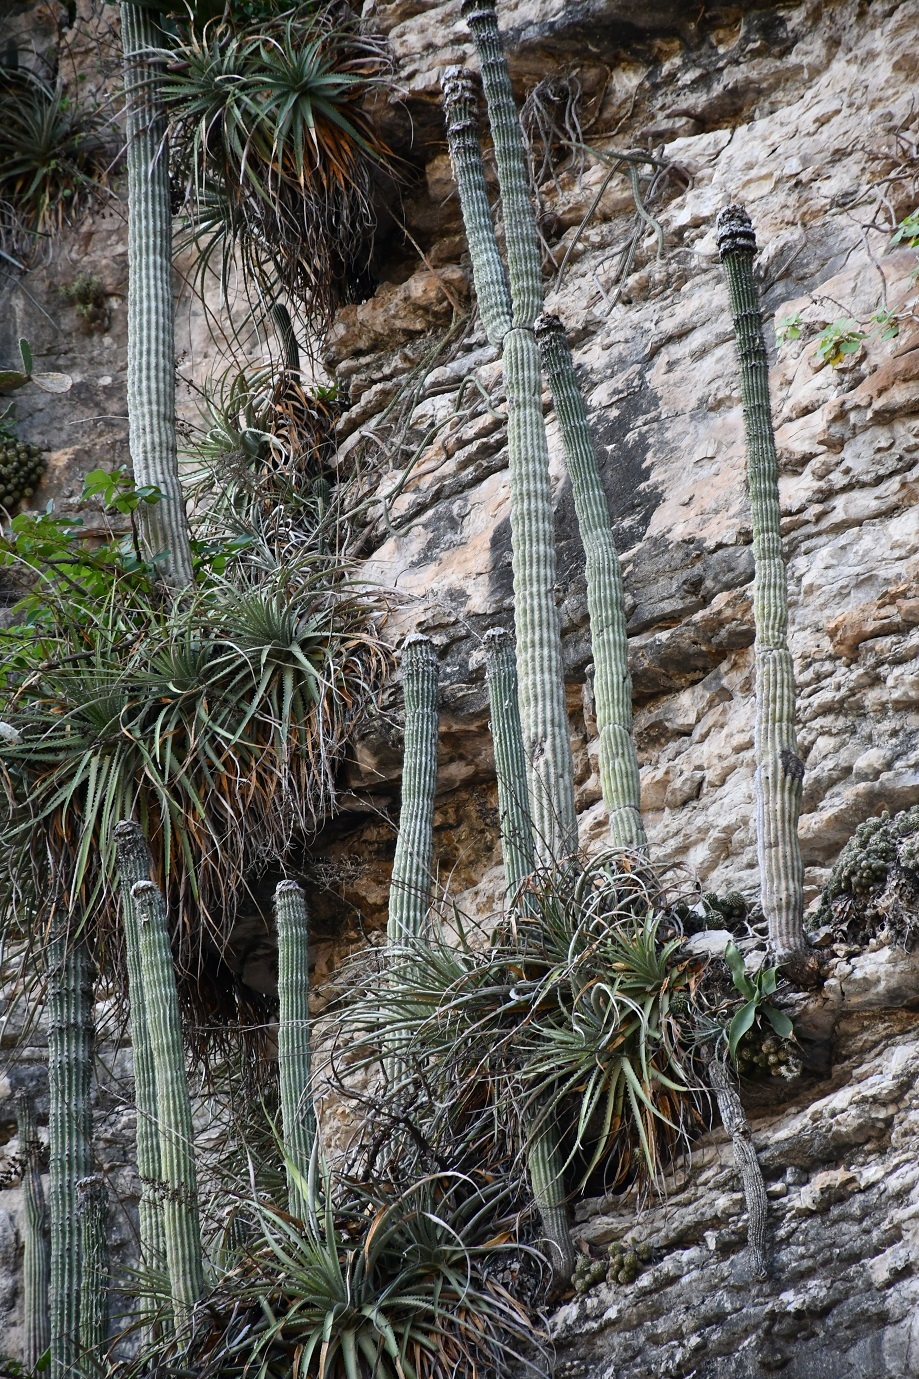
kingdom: Plantae
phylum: Tracheophyta
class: Magnoliopsida
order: Caryophyllales
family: Cactaceae
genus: Cephalocereus
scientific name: Cephalocereus apicicephalium
